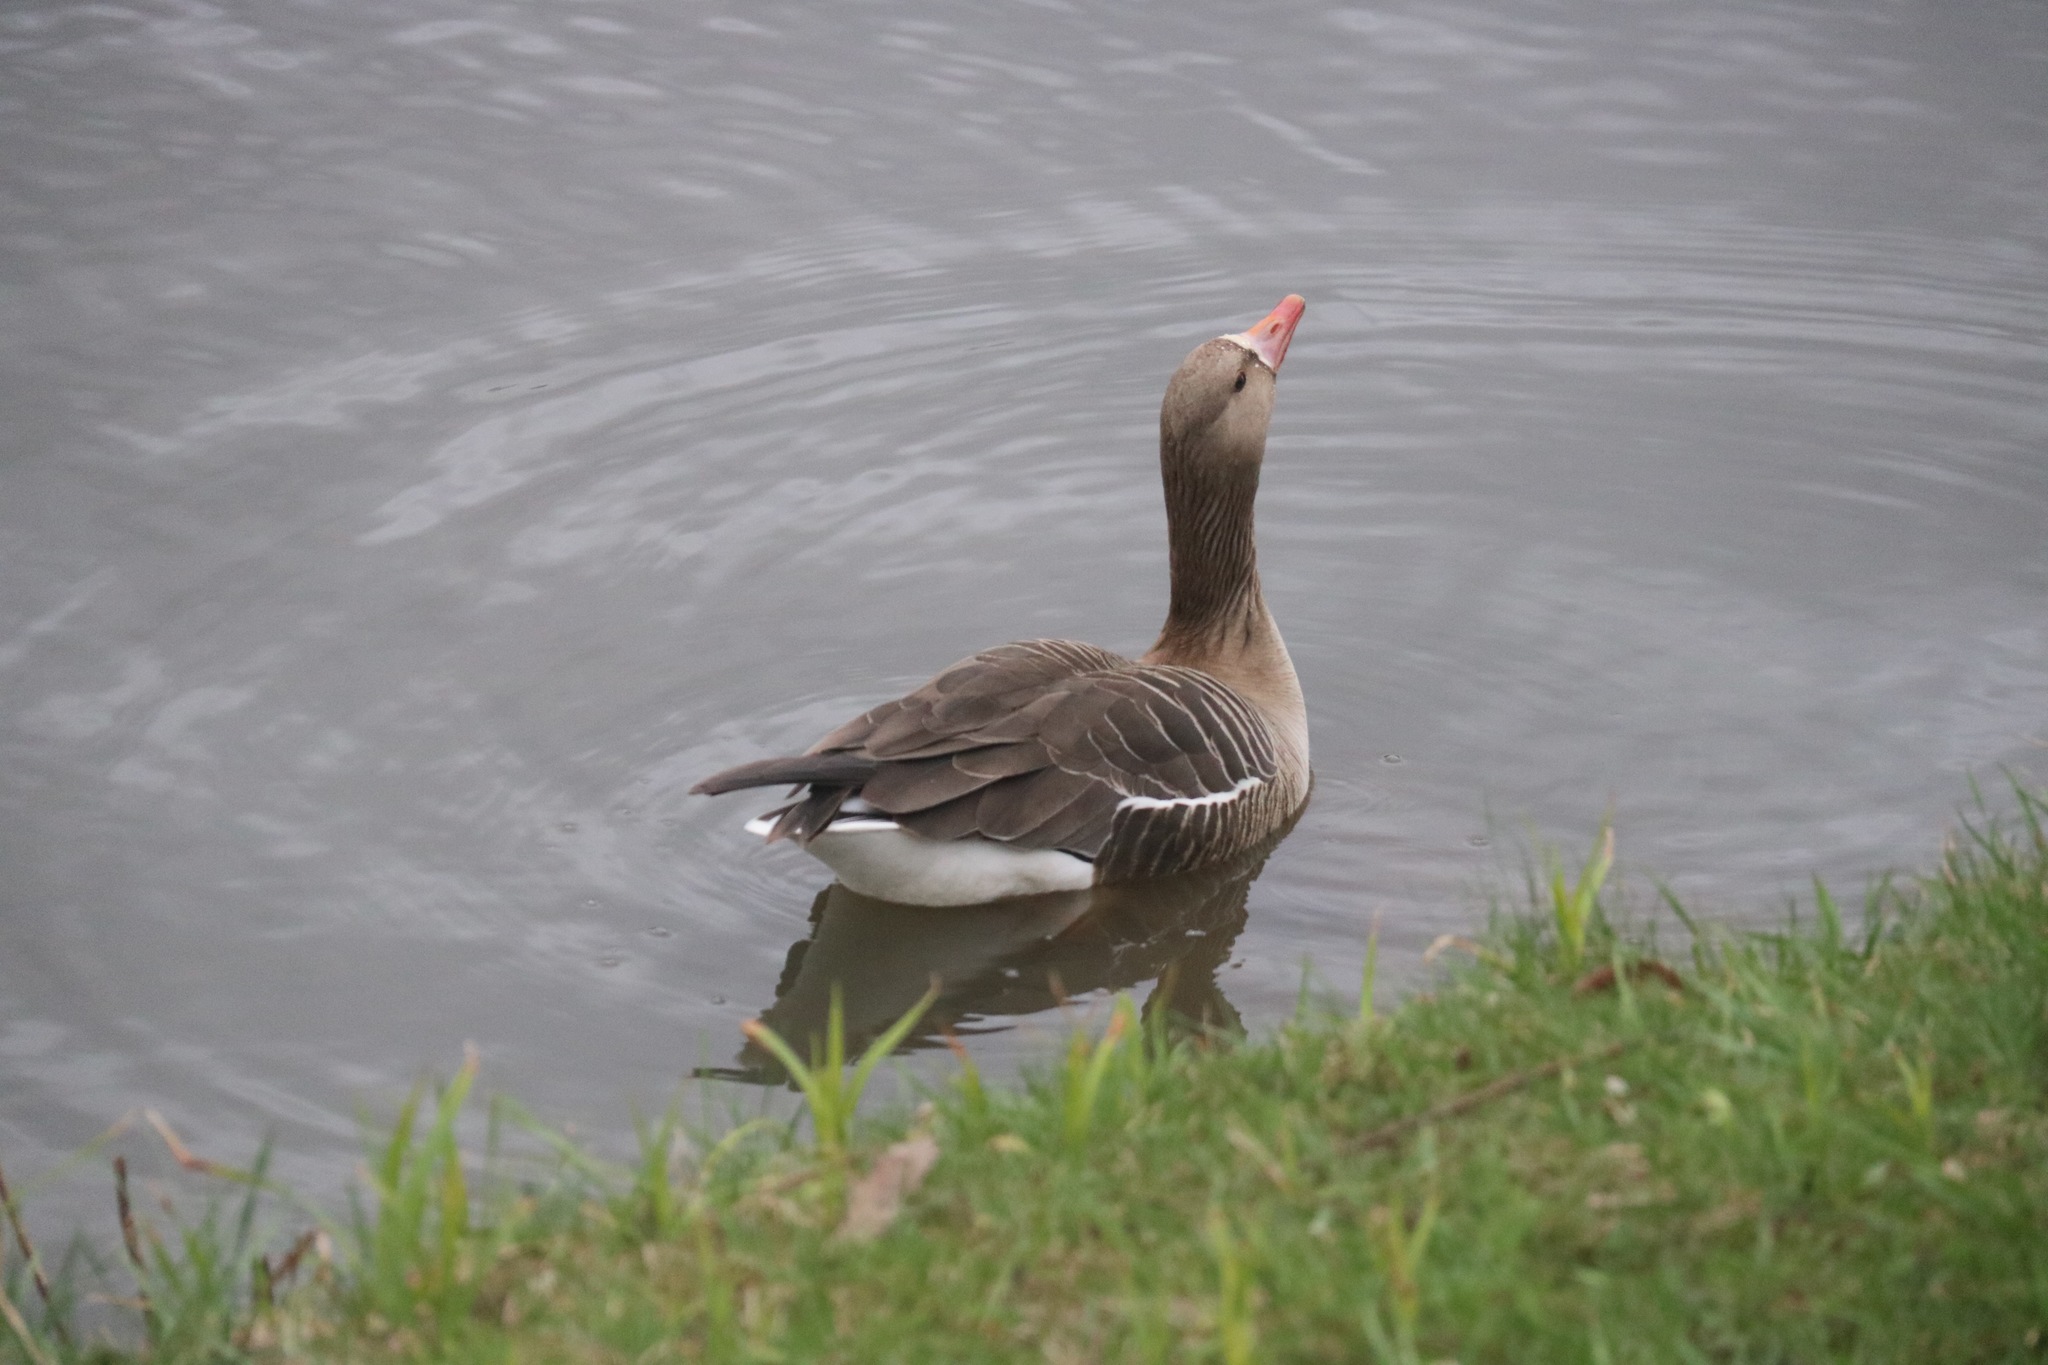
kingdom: Animalia
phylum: Chordata
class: Aves
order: Anseriformes
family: Anatidae
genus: Anser
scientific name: Anser albifrons
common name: Greater white-fronted goose
